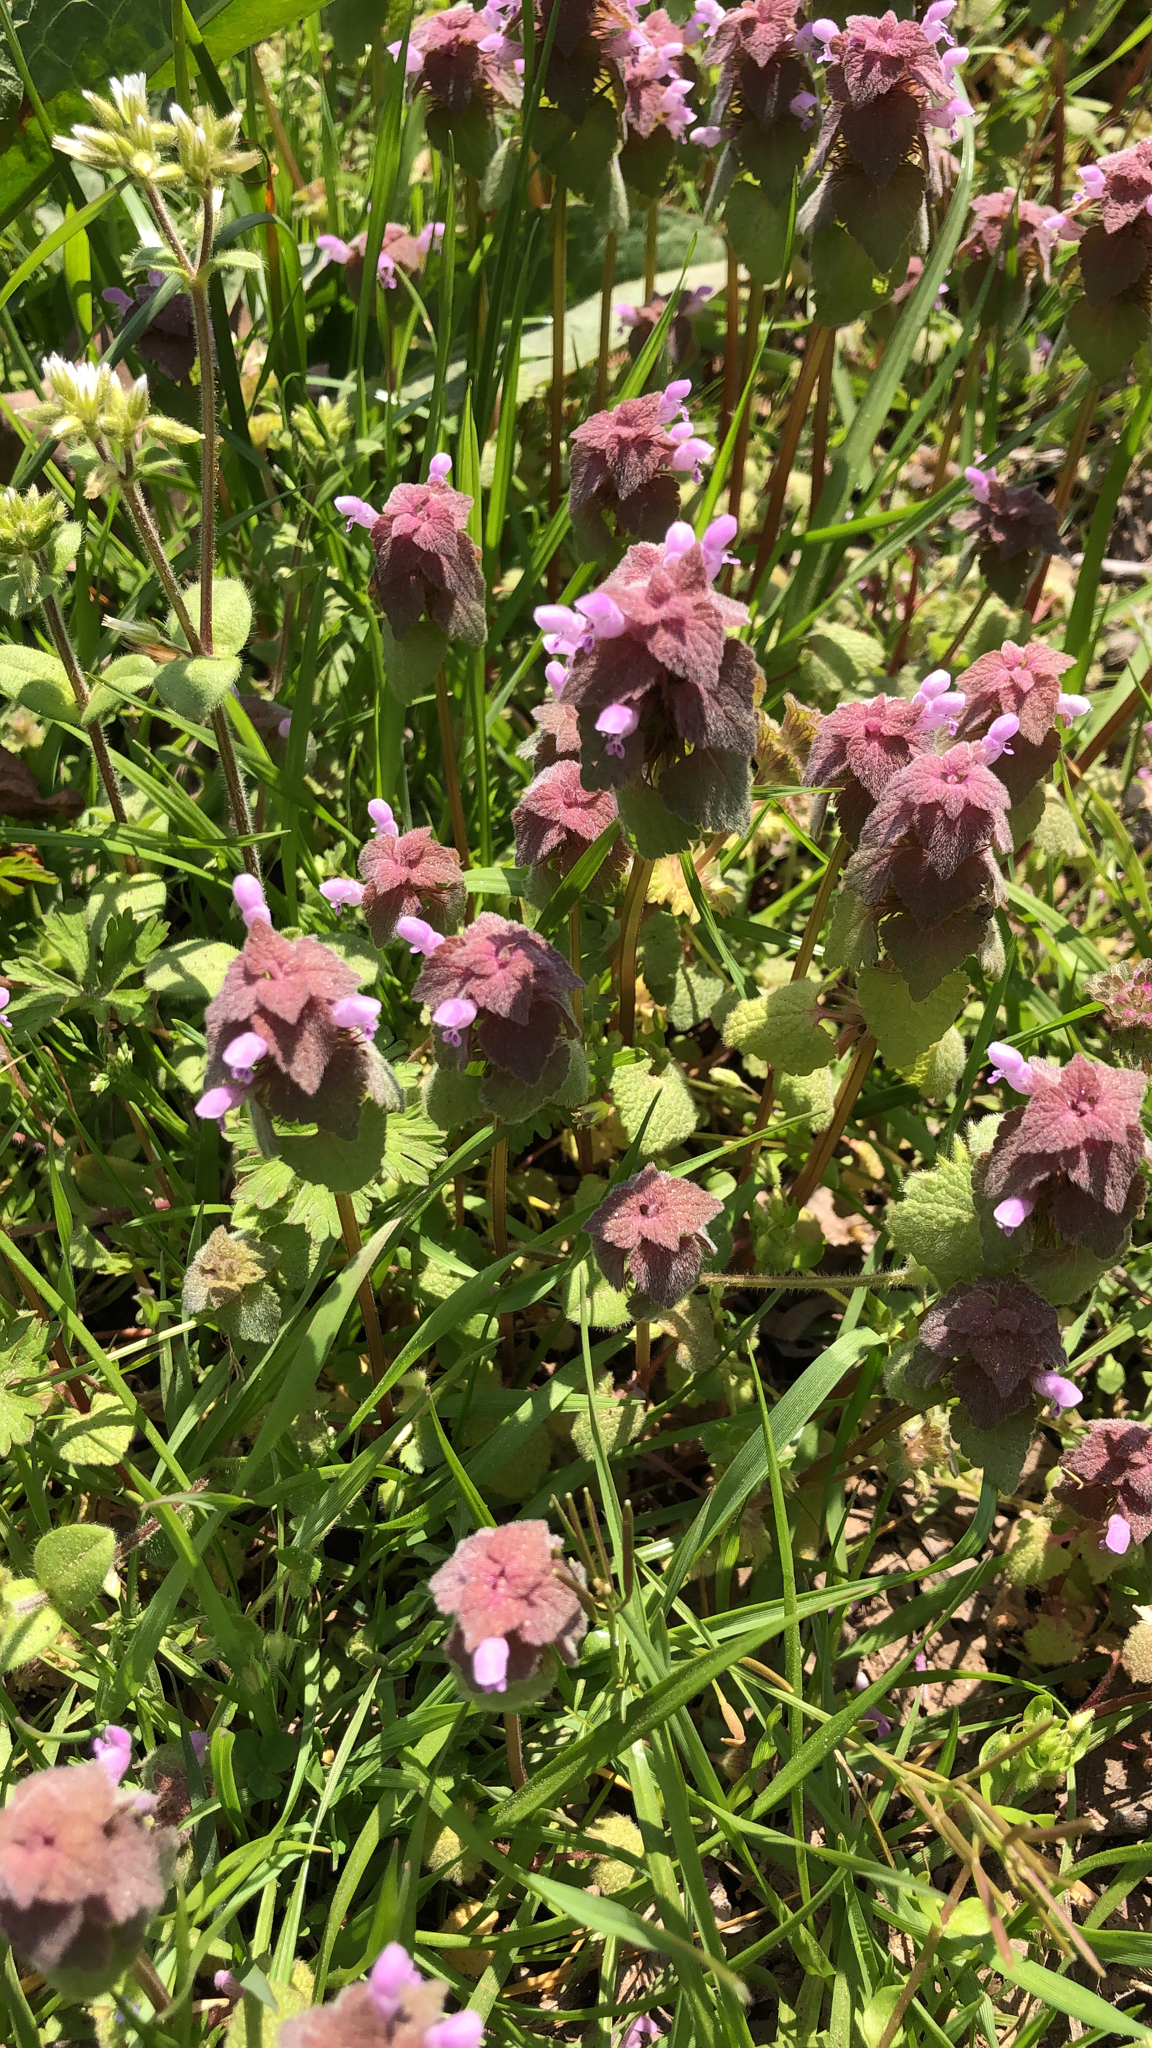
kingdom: Plantae
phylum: Tracheophyta
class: Magnoliopsida
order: Lamiales
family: Lamiaceae
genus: Lamium
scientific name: Lamium purpureum
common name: Red dead-nettle
